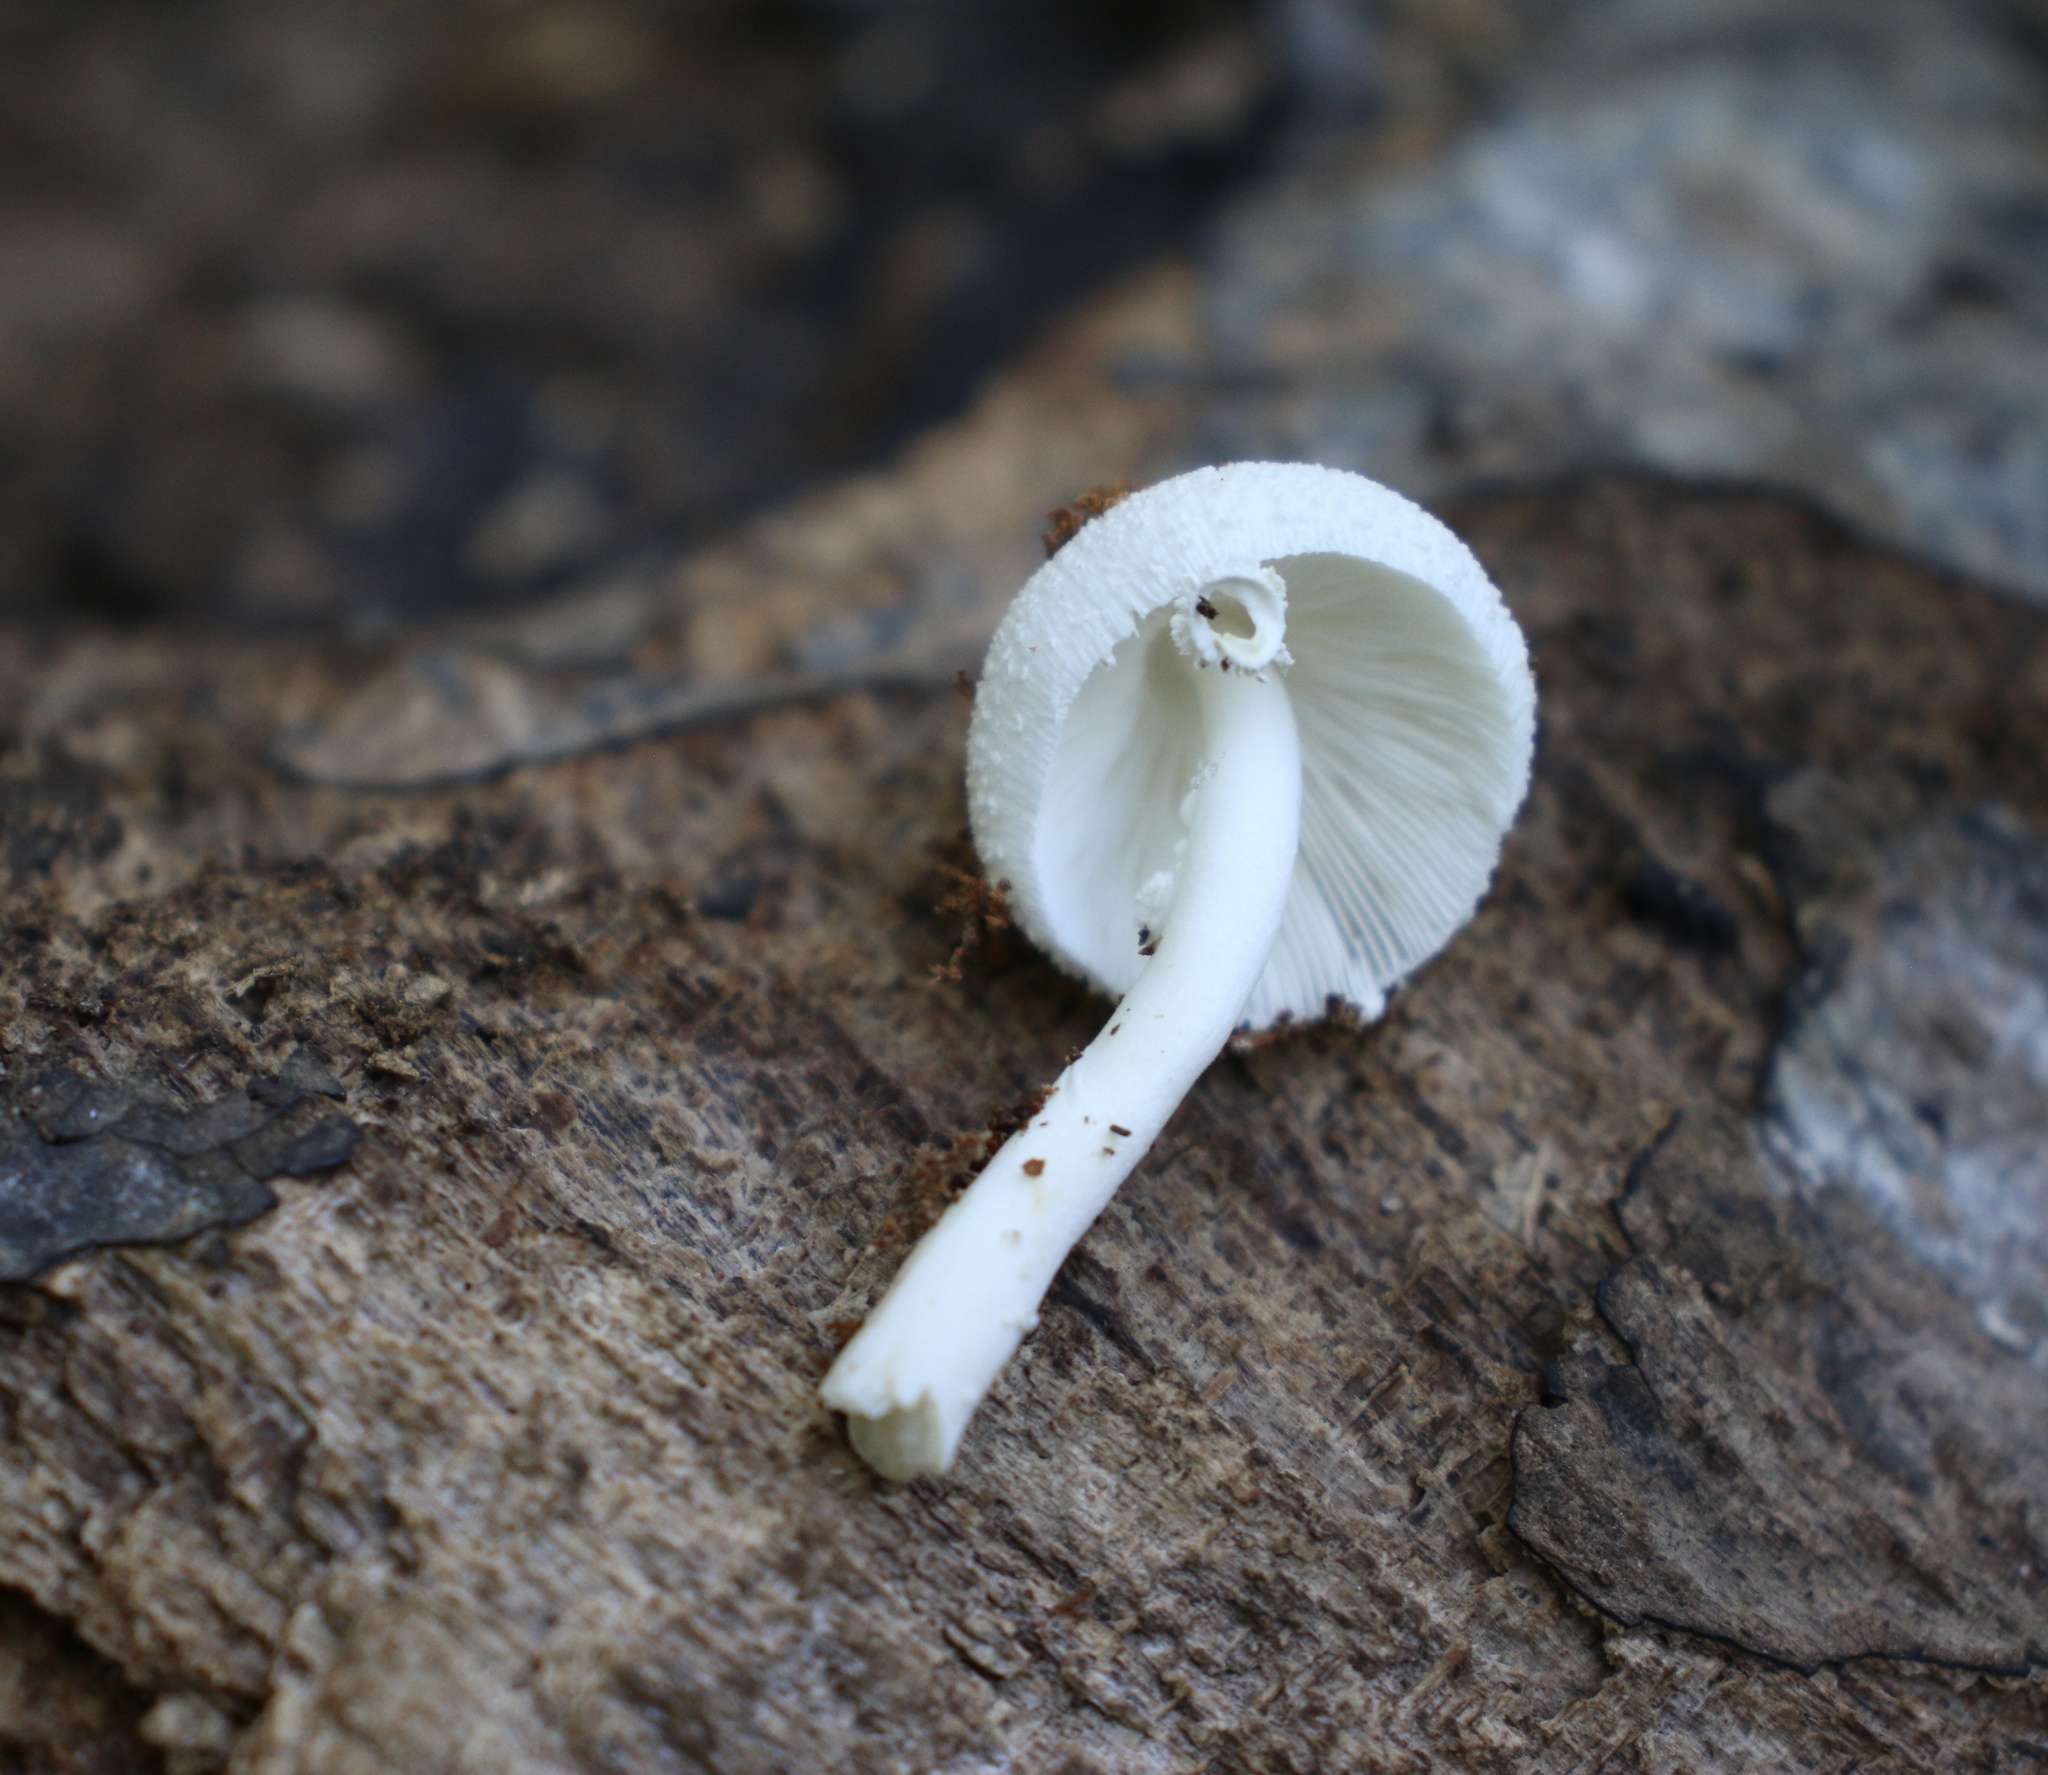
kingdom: Fungi
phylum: Basidiomycota
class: Agaricomycetes
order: Agaricales
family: Agaricaceae
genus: Leucocoprinus
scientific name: Leucocoprinus cepistipes
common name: Onion-stalk parasol
